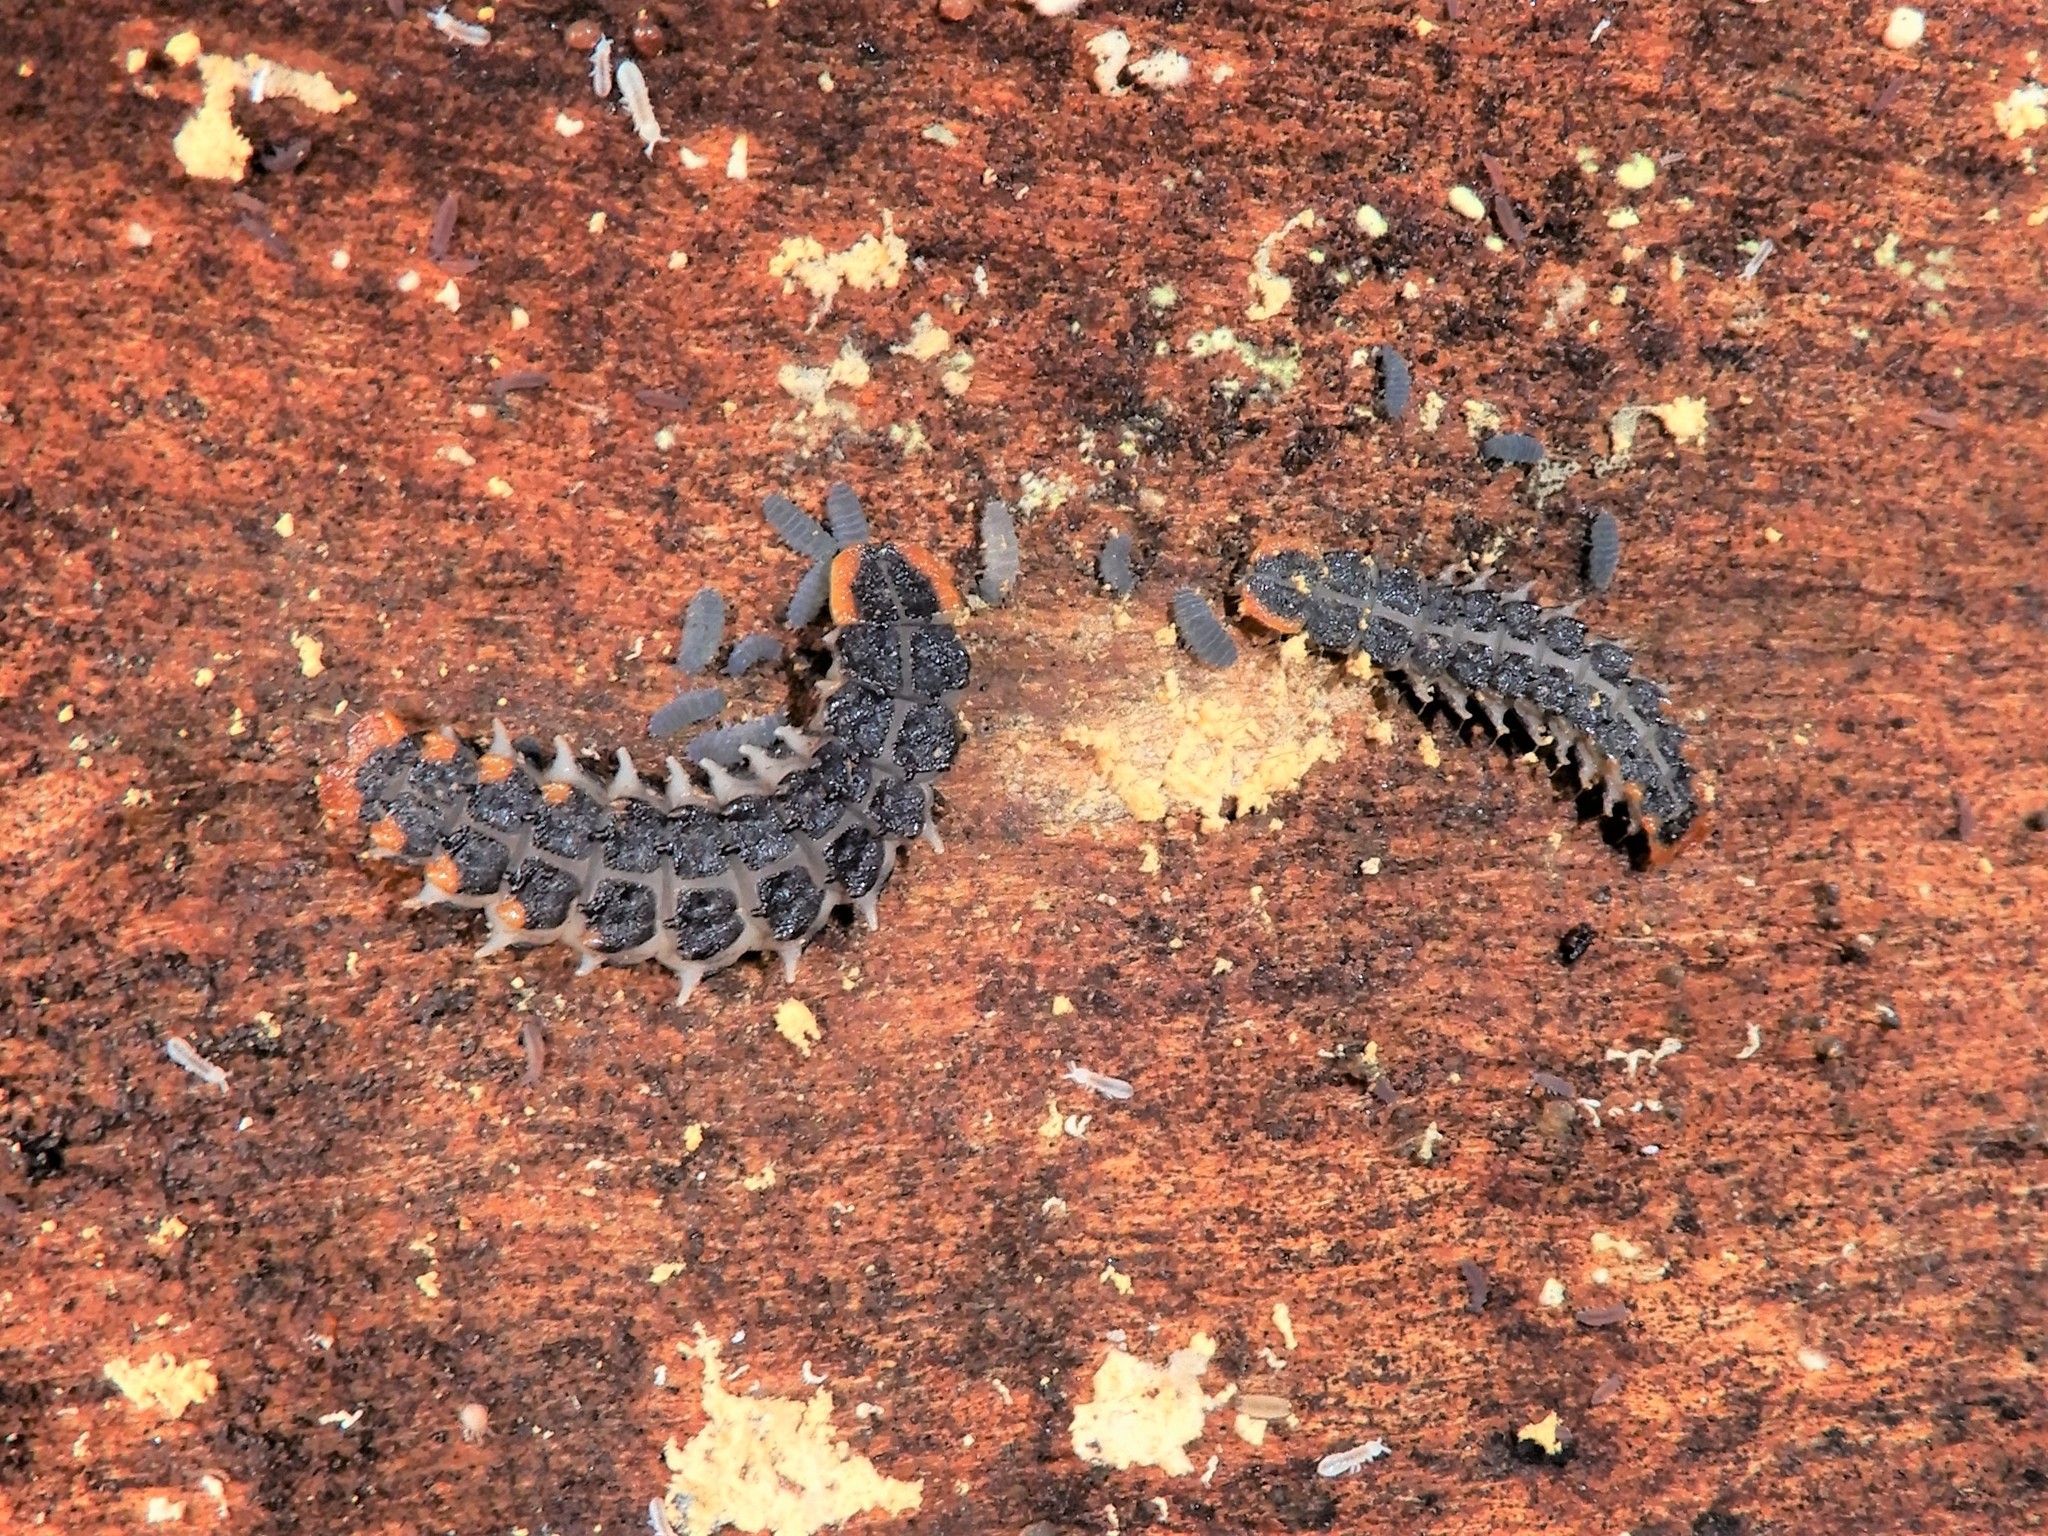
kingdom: Animalia
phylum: Arthropoda
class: Insecta
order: Coleoptera
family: Lycidae
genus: Porrostoma
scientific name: Porrostoma rufipenne
